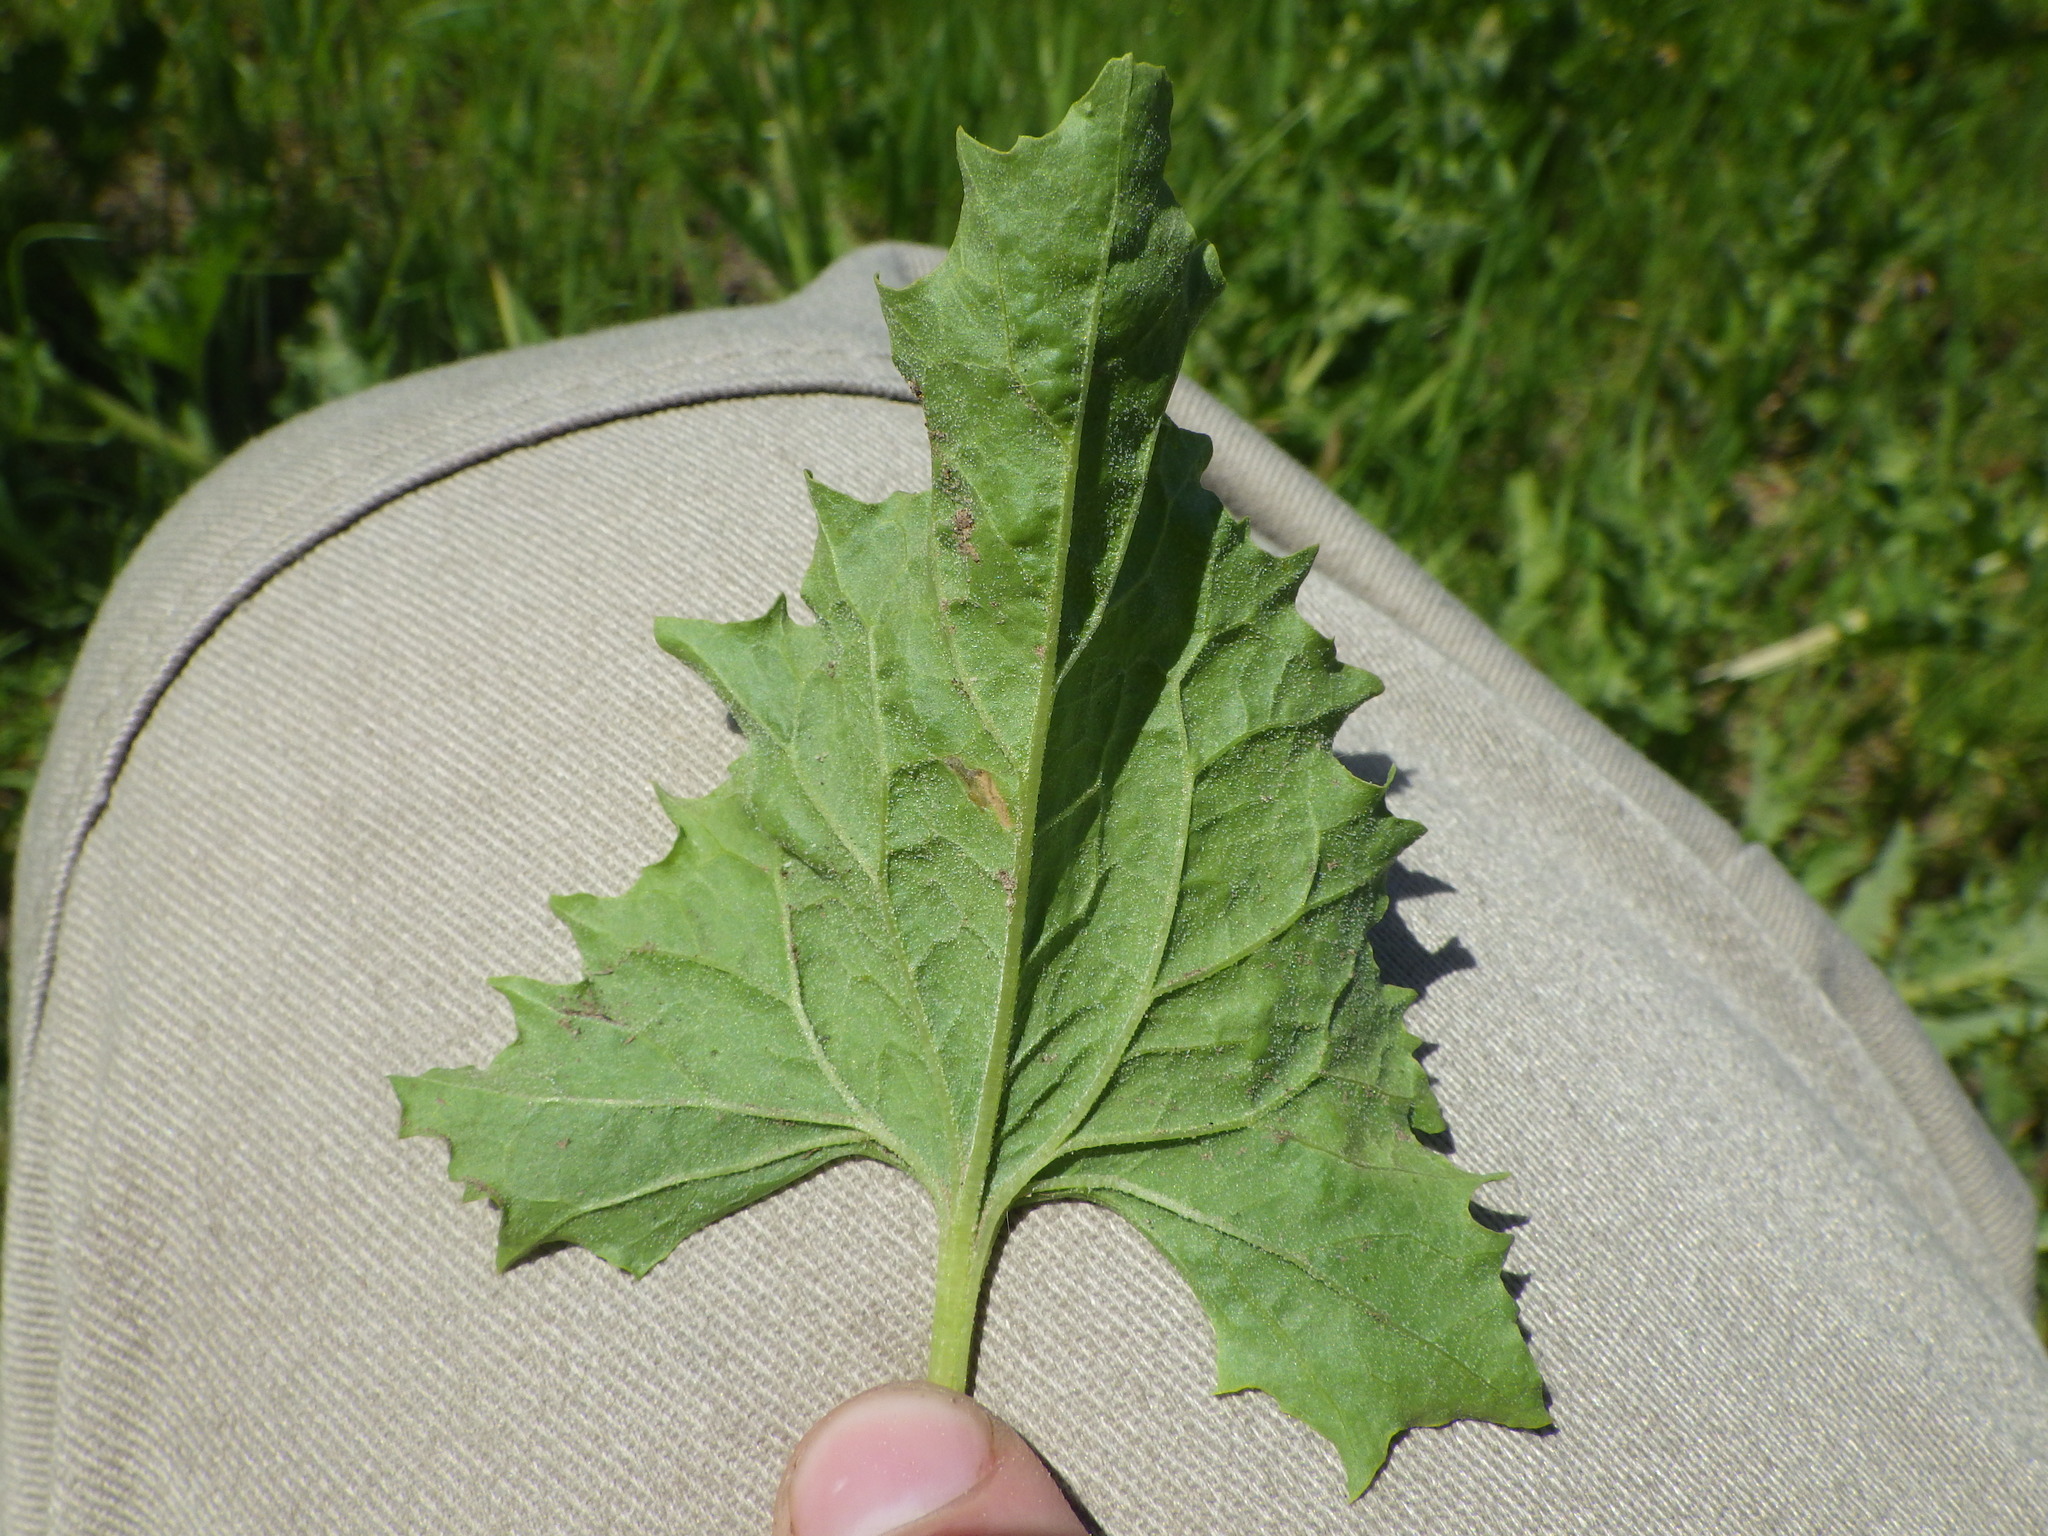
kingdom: Plantae
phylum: Tracheophyta
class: Magnoliopsida
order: Caryophyllales
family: Amaranthaceae
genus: Blitum
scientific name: Blitum californicum
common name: California goosefoot
